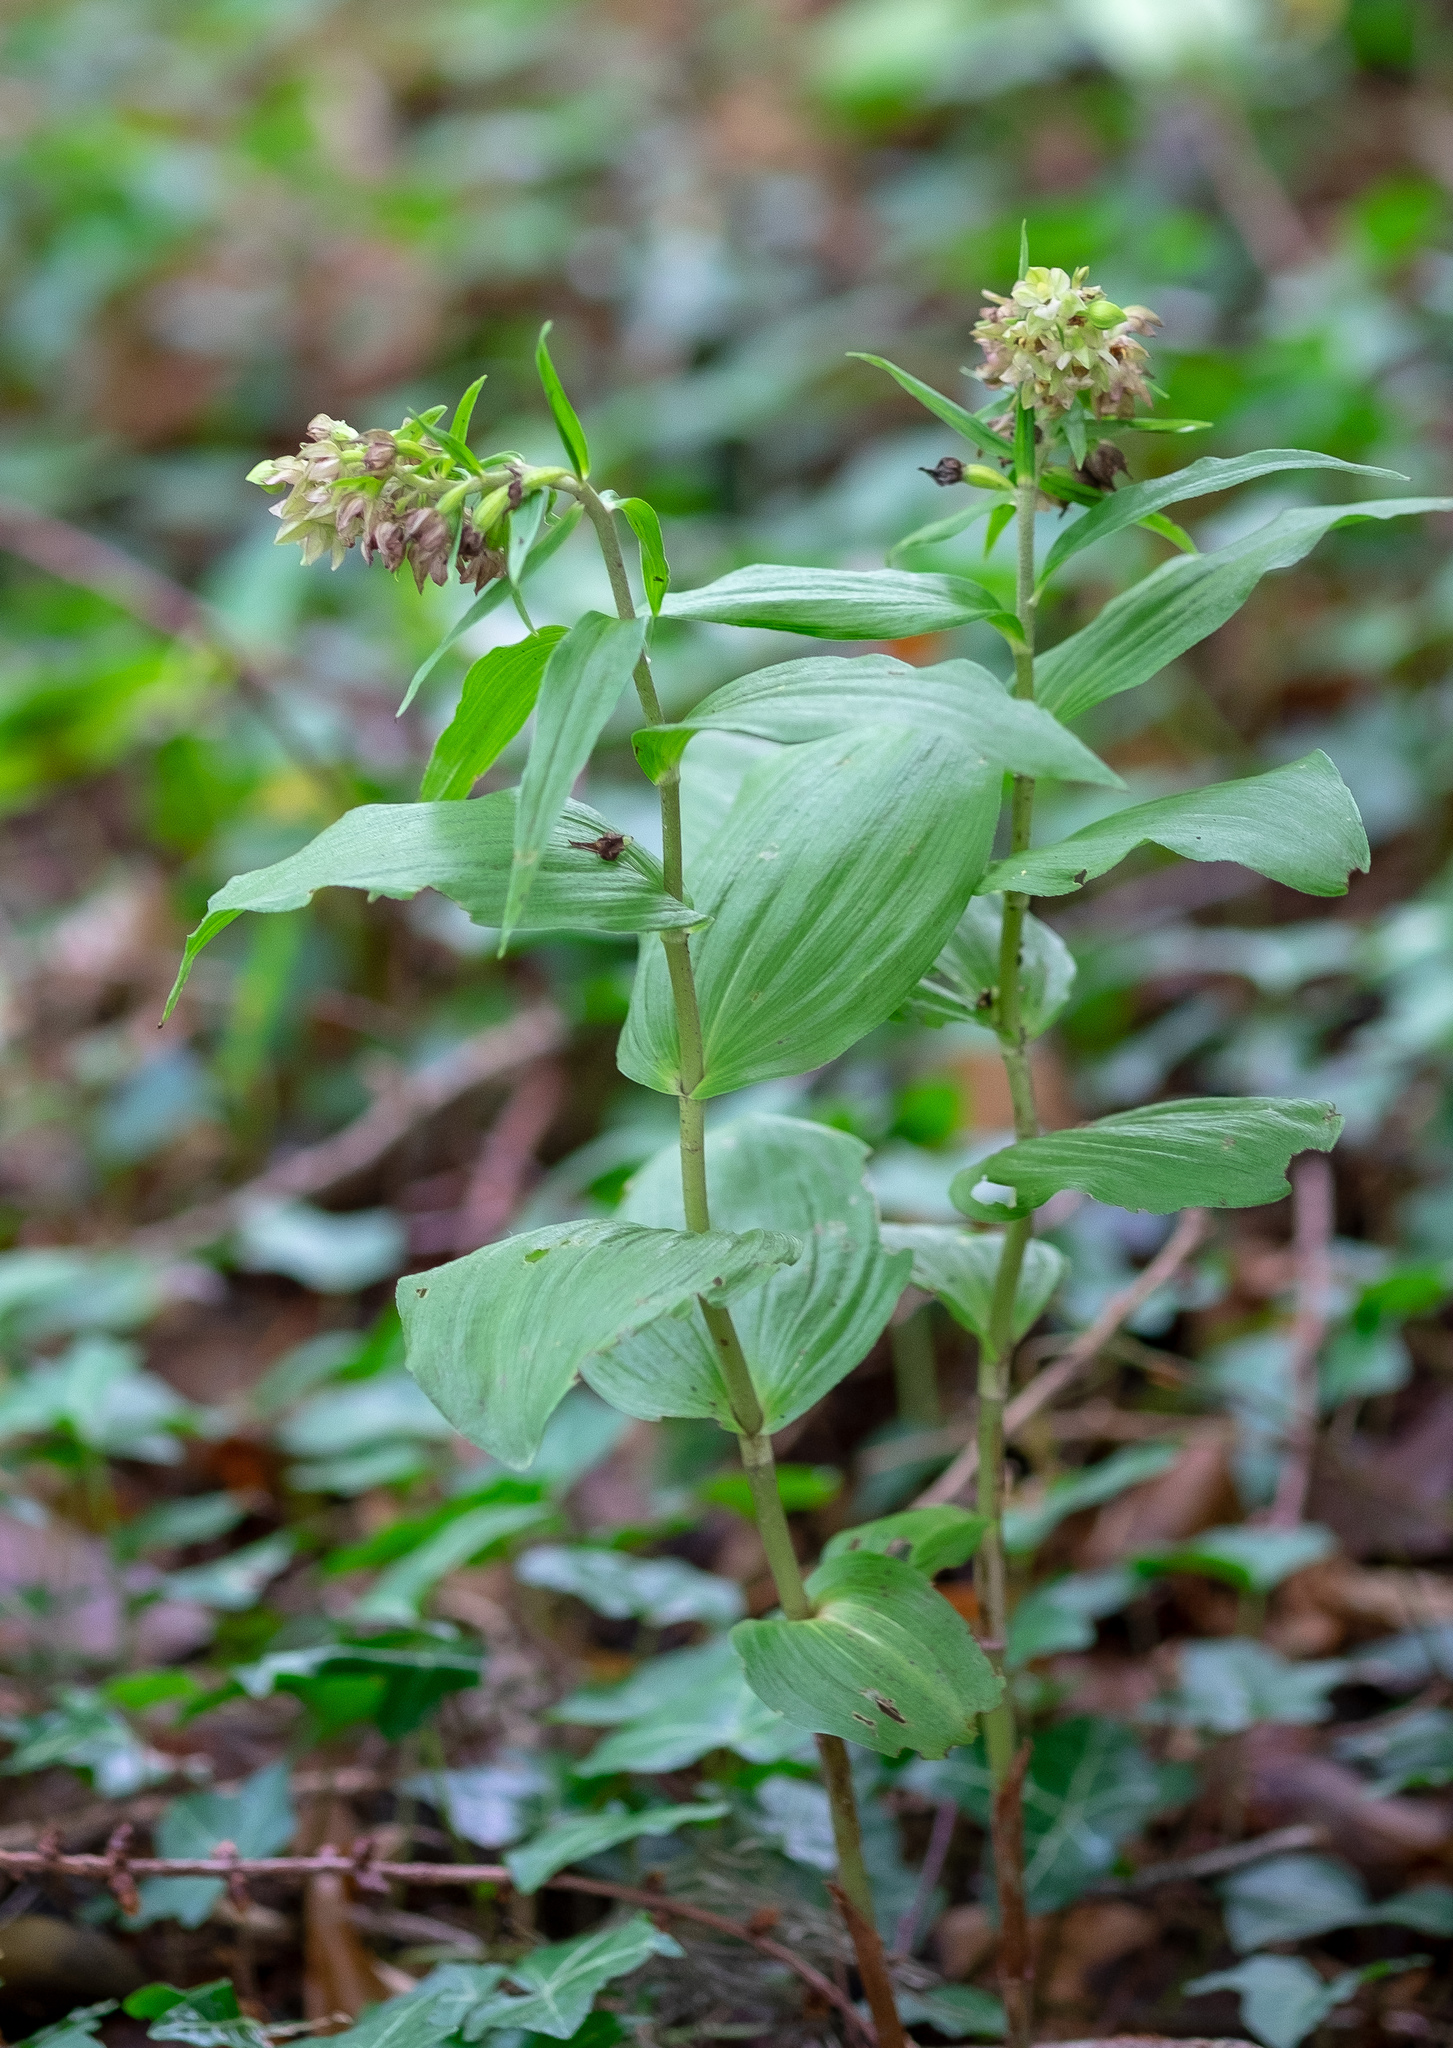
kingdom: Plantae
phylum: Tracheophyta
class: Liliopsida
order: Asparagales
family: Orchidaceae
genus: Epipactis
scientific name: Epipactis helleborine
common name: Broad-leaved helleborine
